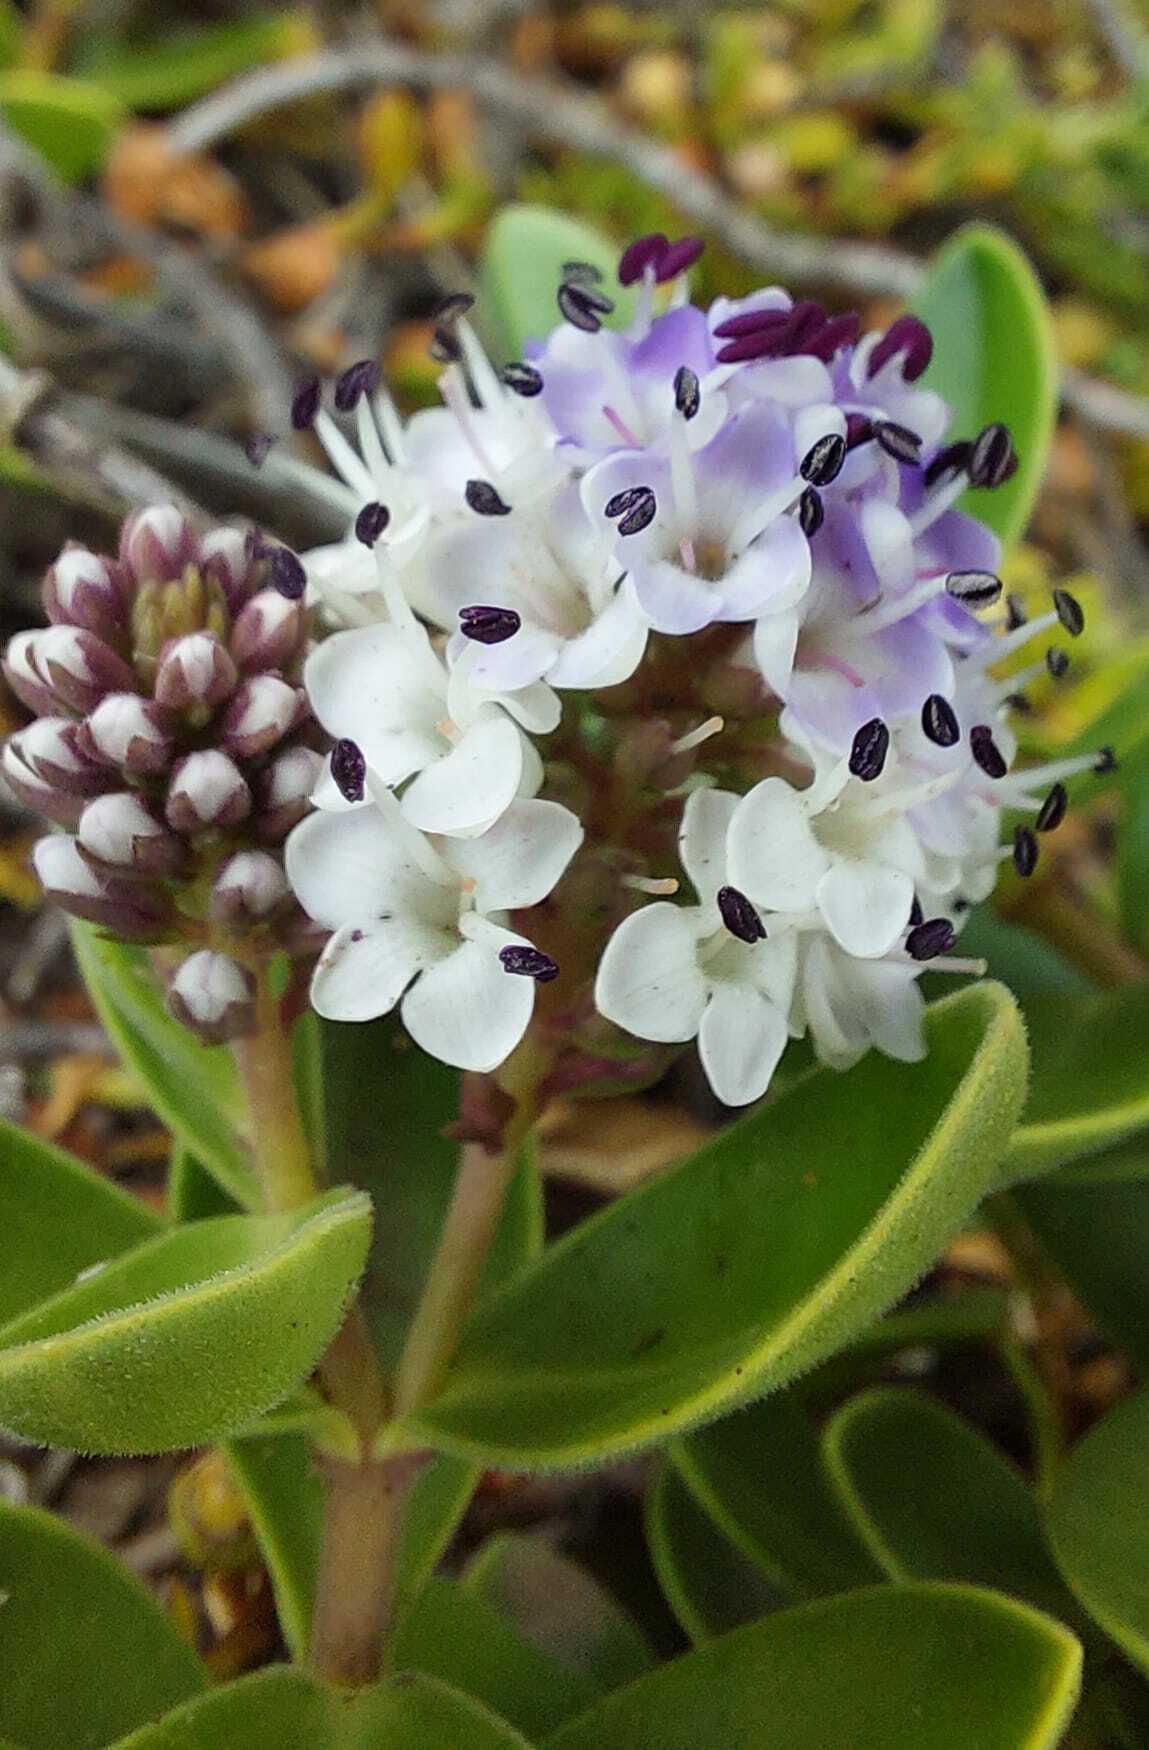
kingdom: Plantae
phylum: Tracheophyta
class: Magnoliopsida
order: Lamiales
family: Plantaginaceae
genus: Veronica
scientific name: Veronica chathamica
